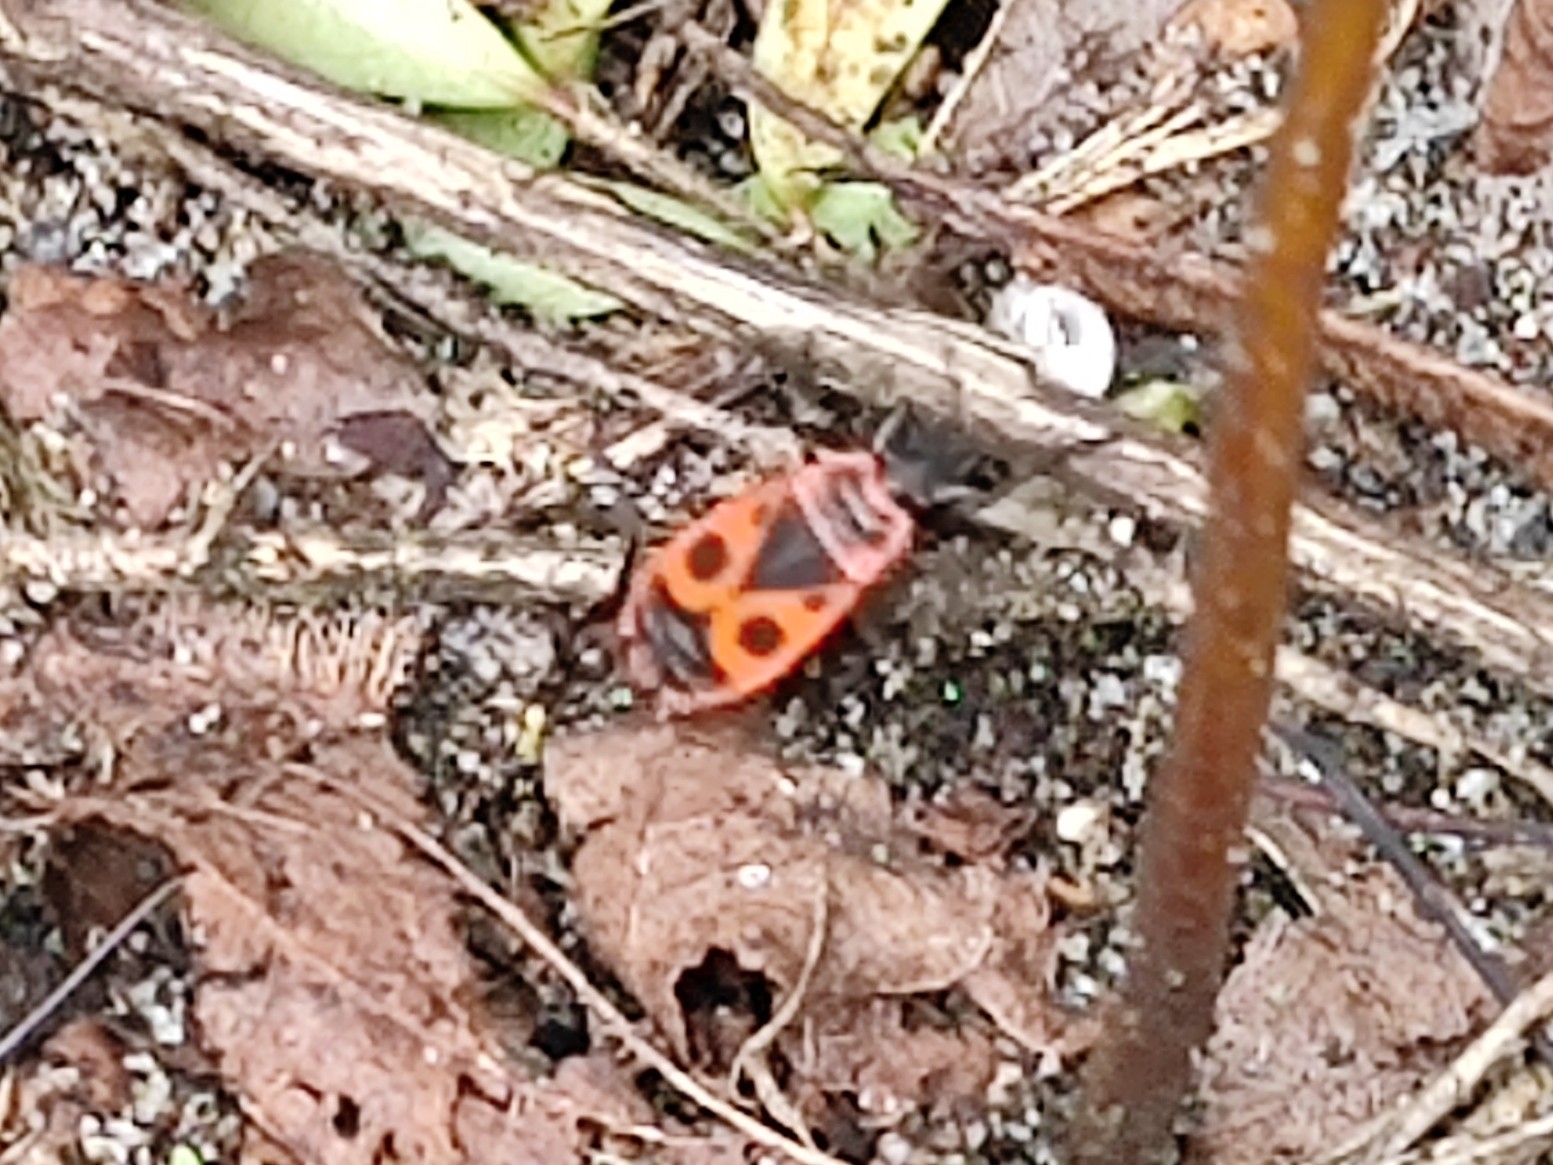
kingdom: Animalia
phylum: Arthropoda
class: Insecta
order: Hemiptera
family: Pyrrhocoridae
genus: Pyrrhocoris
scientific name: Pyrrhocoris apterus
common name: Firebug
